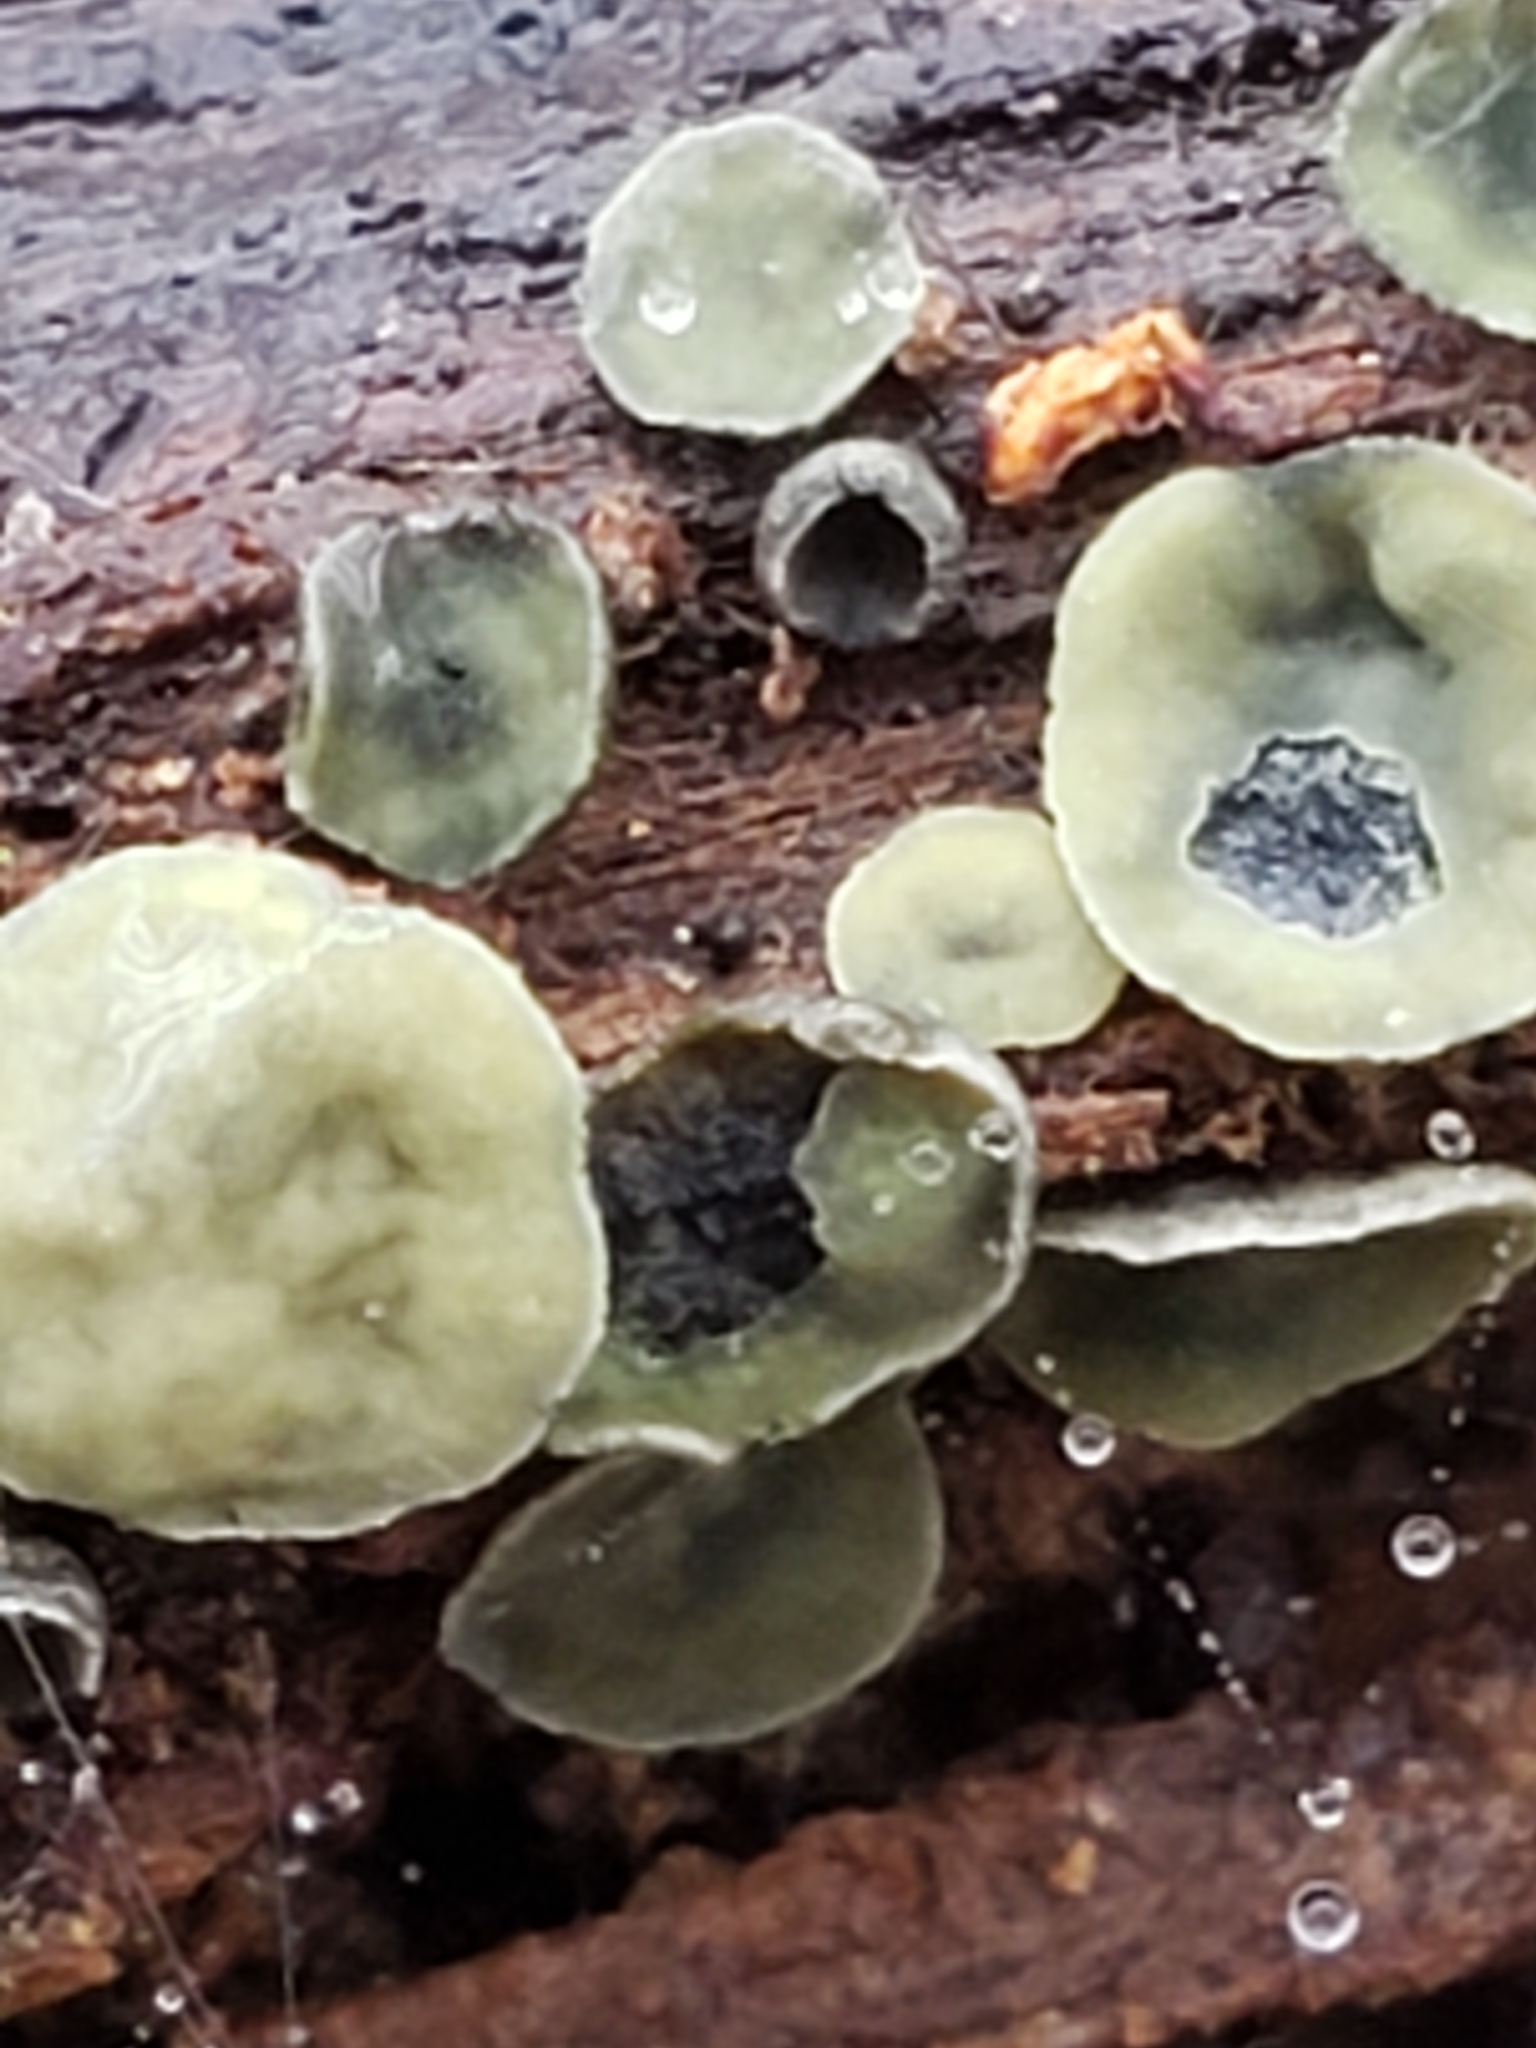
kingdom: Fungi
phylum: Ascomycota
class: Leotiomycetes
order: Helotiales
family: Chlorospleniaceae
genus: Chlorosplenium
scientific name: Chlorosplenium chlora
